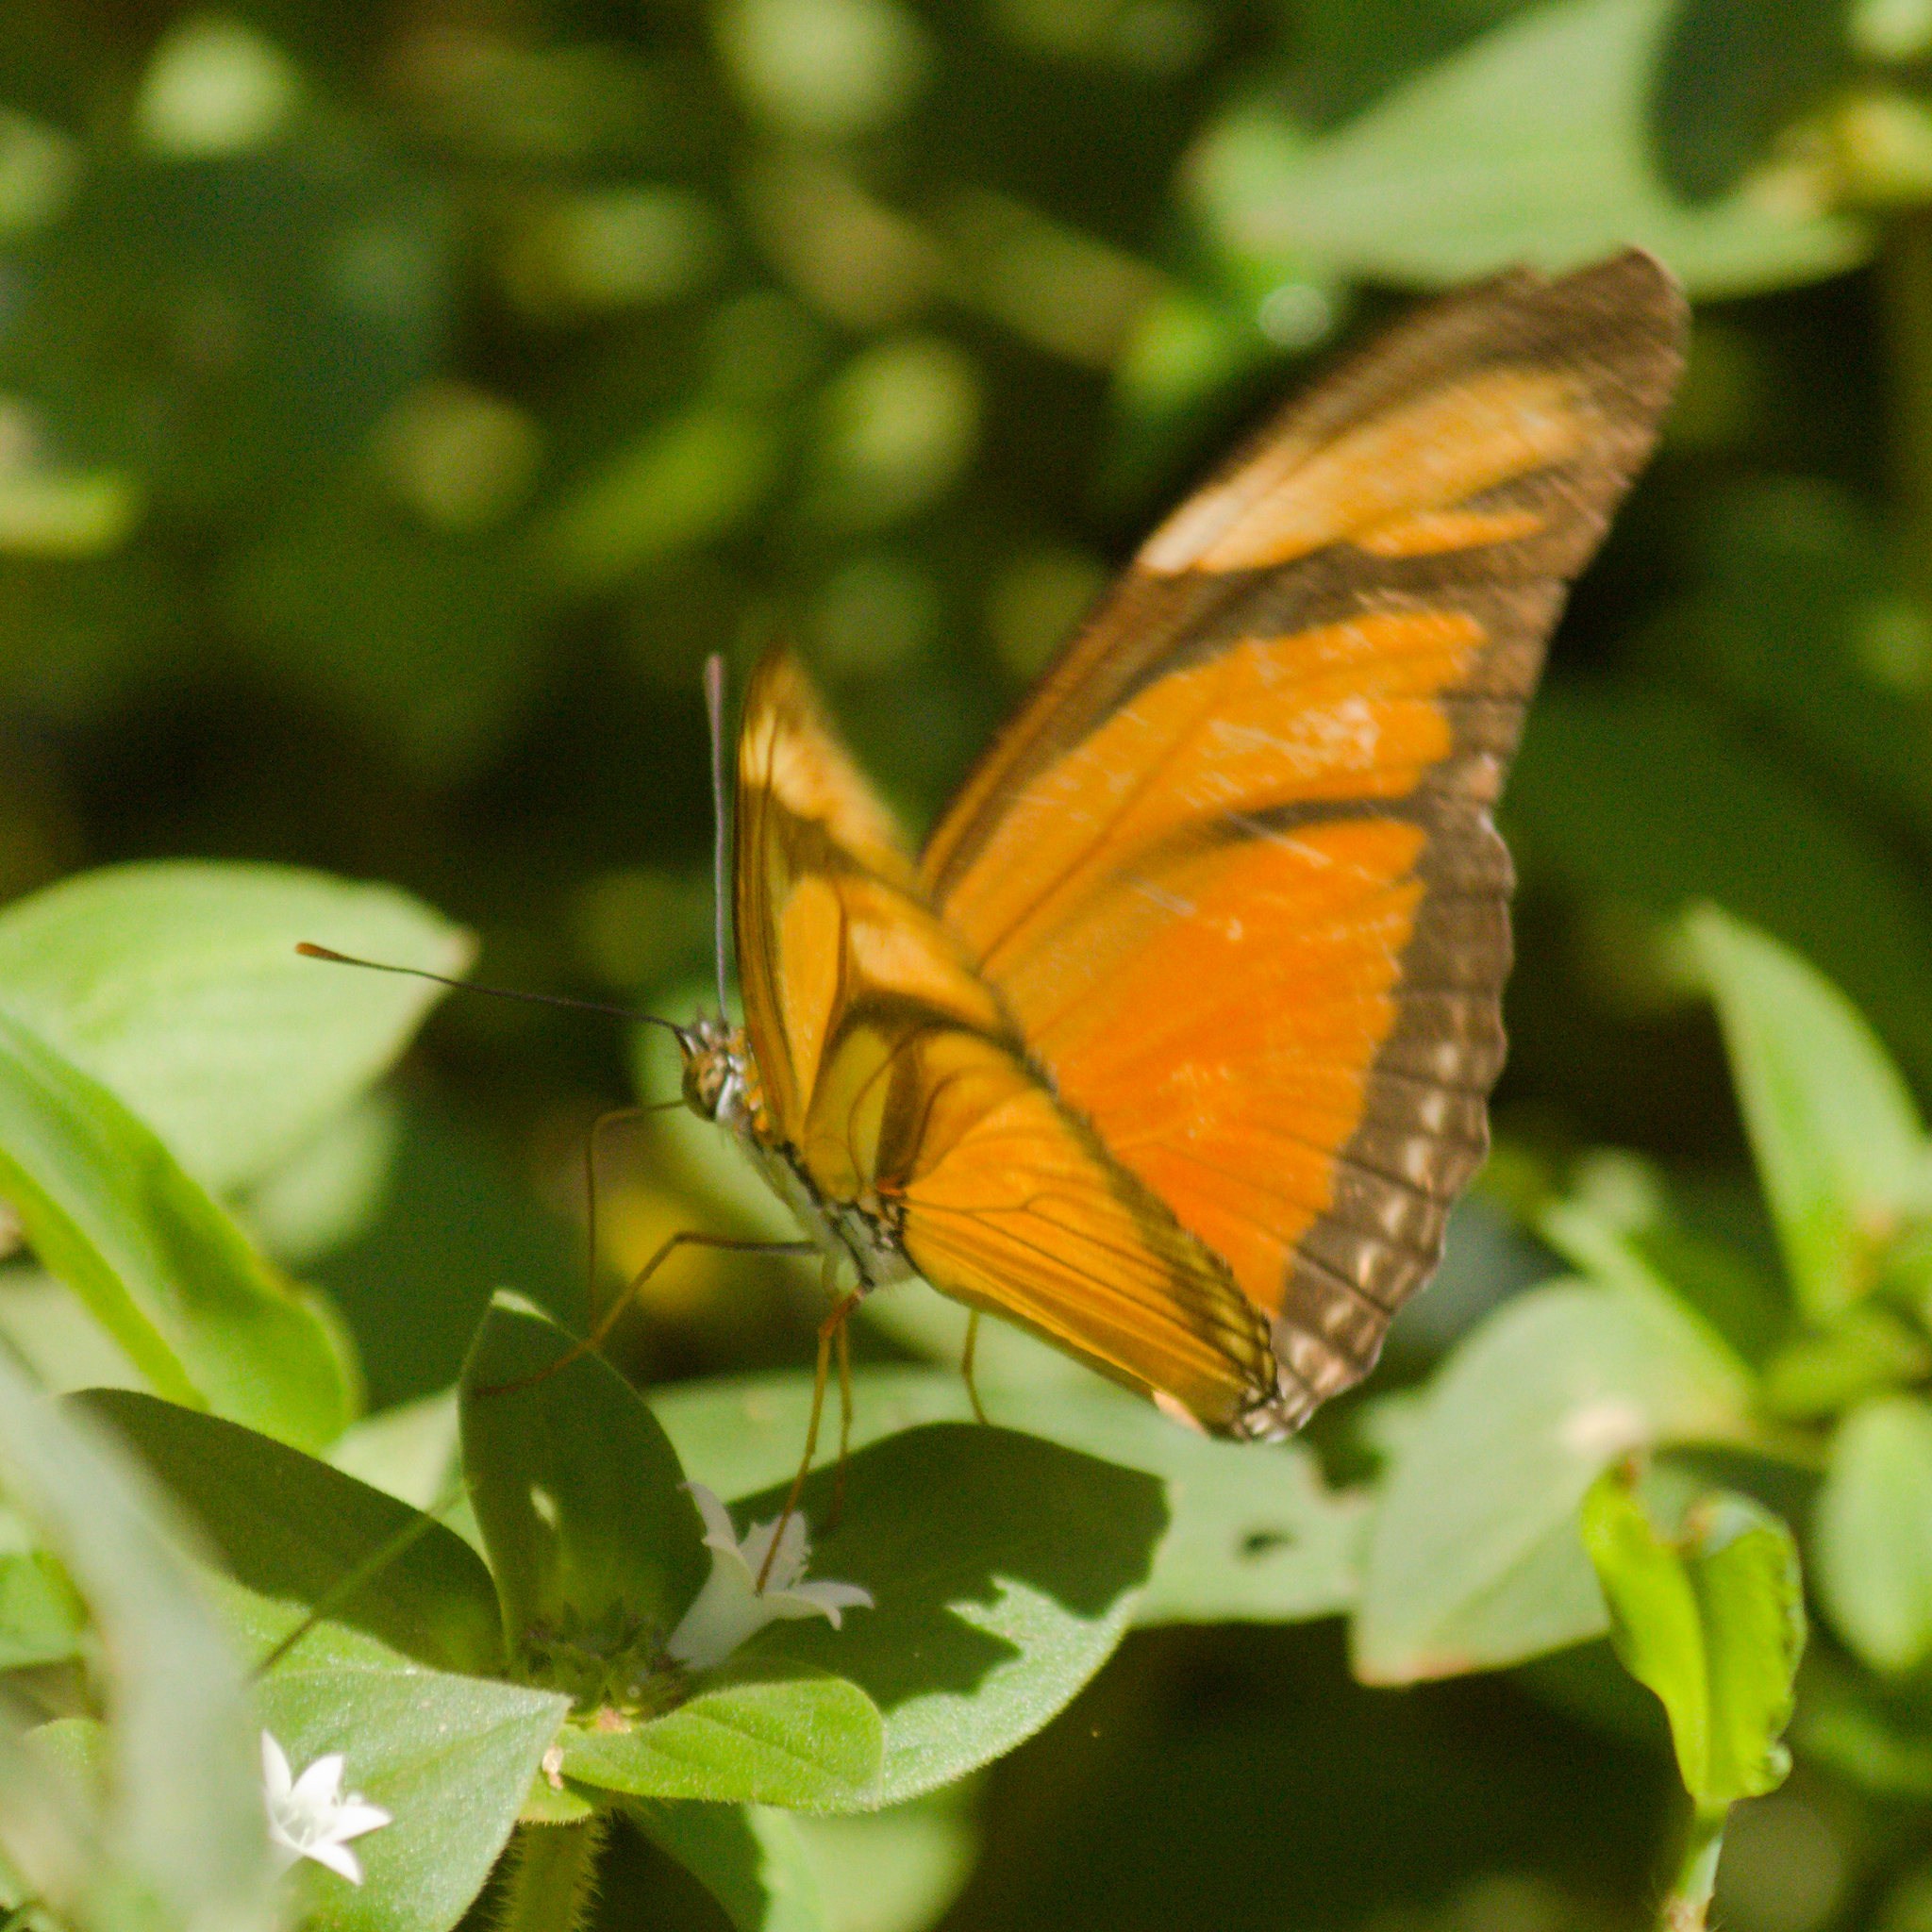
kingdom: Animalia
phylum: Arthropoda
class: Insecta
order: Lepidoptera
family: Nymphalidae
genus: Dryas
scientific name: Dryas iulia
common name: Flambeau
